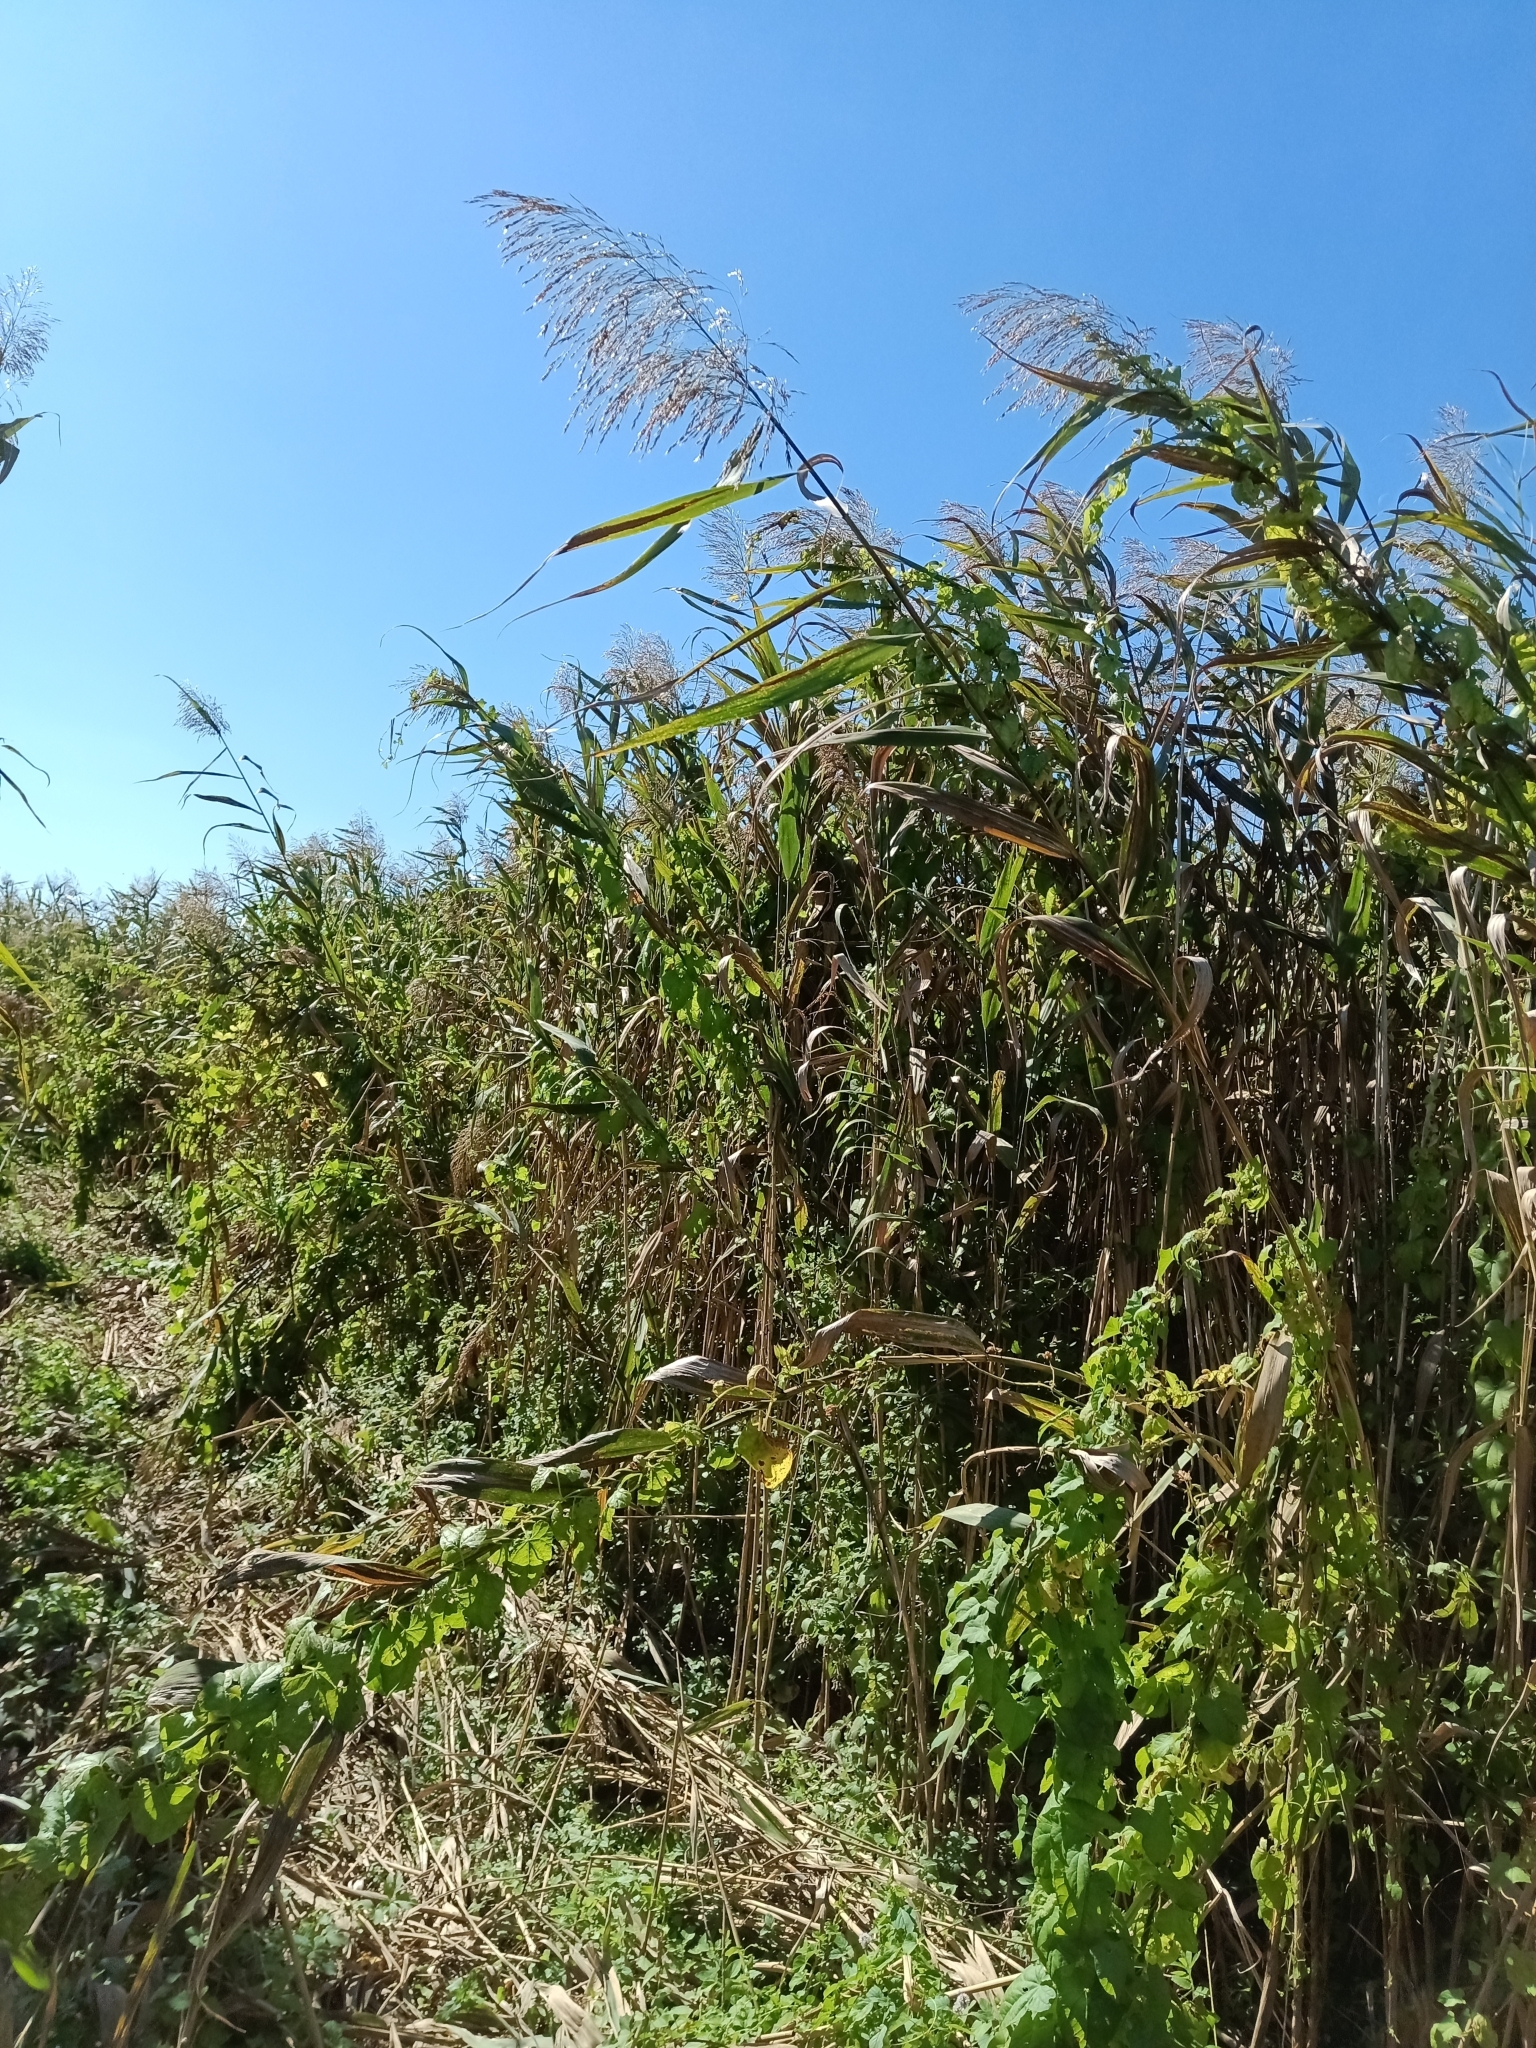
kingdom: Plantae
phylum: Tracheophyta
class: Liliopsida
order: Poales
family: Poaceae
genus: Phragmites
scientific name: Phragmites australis
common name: Common reed
